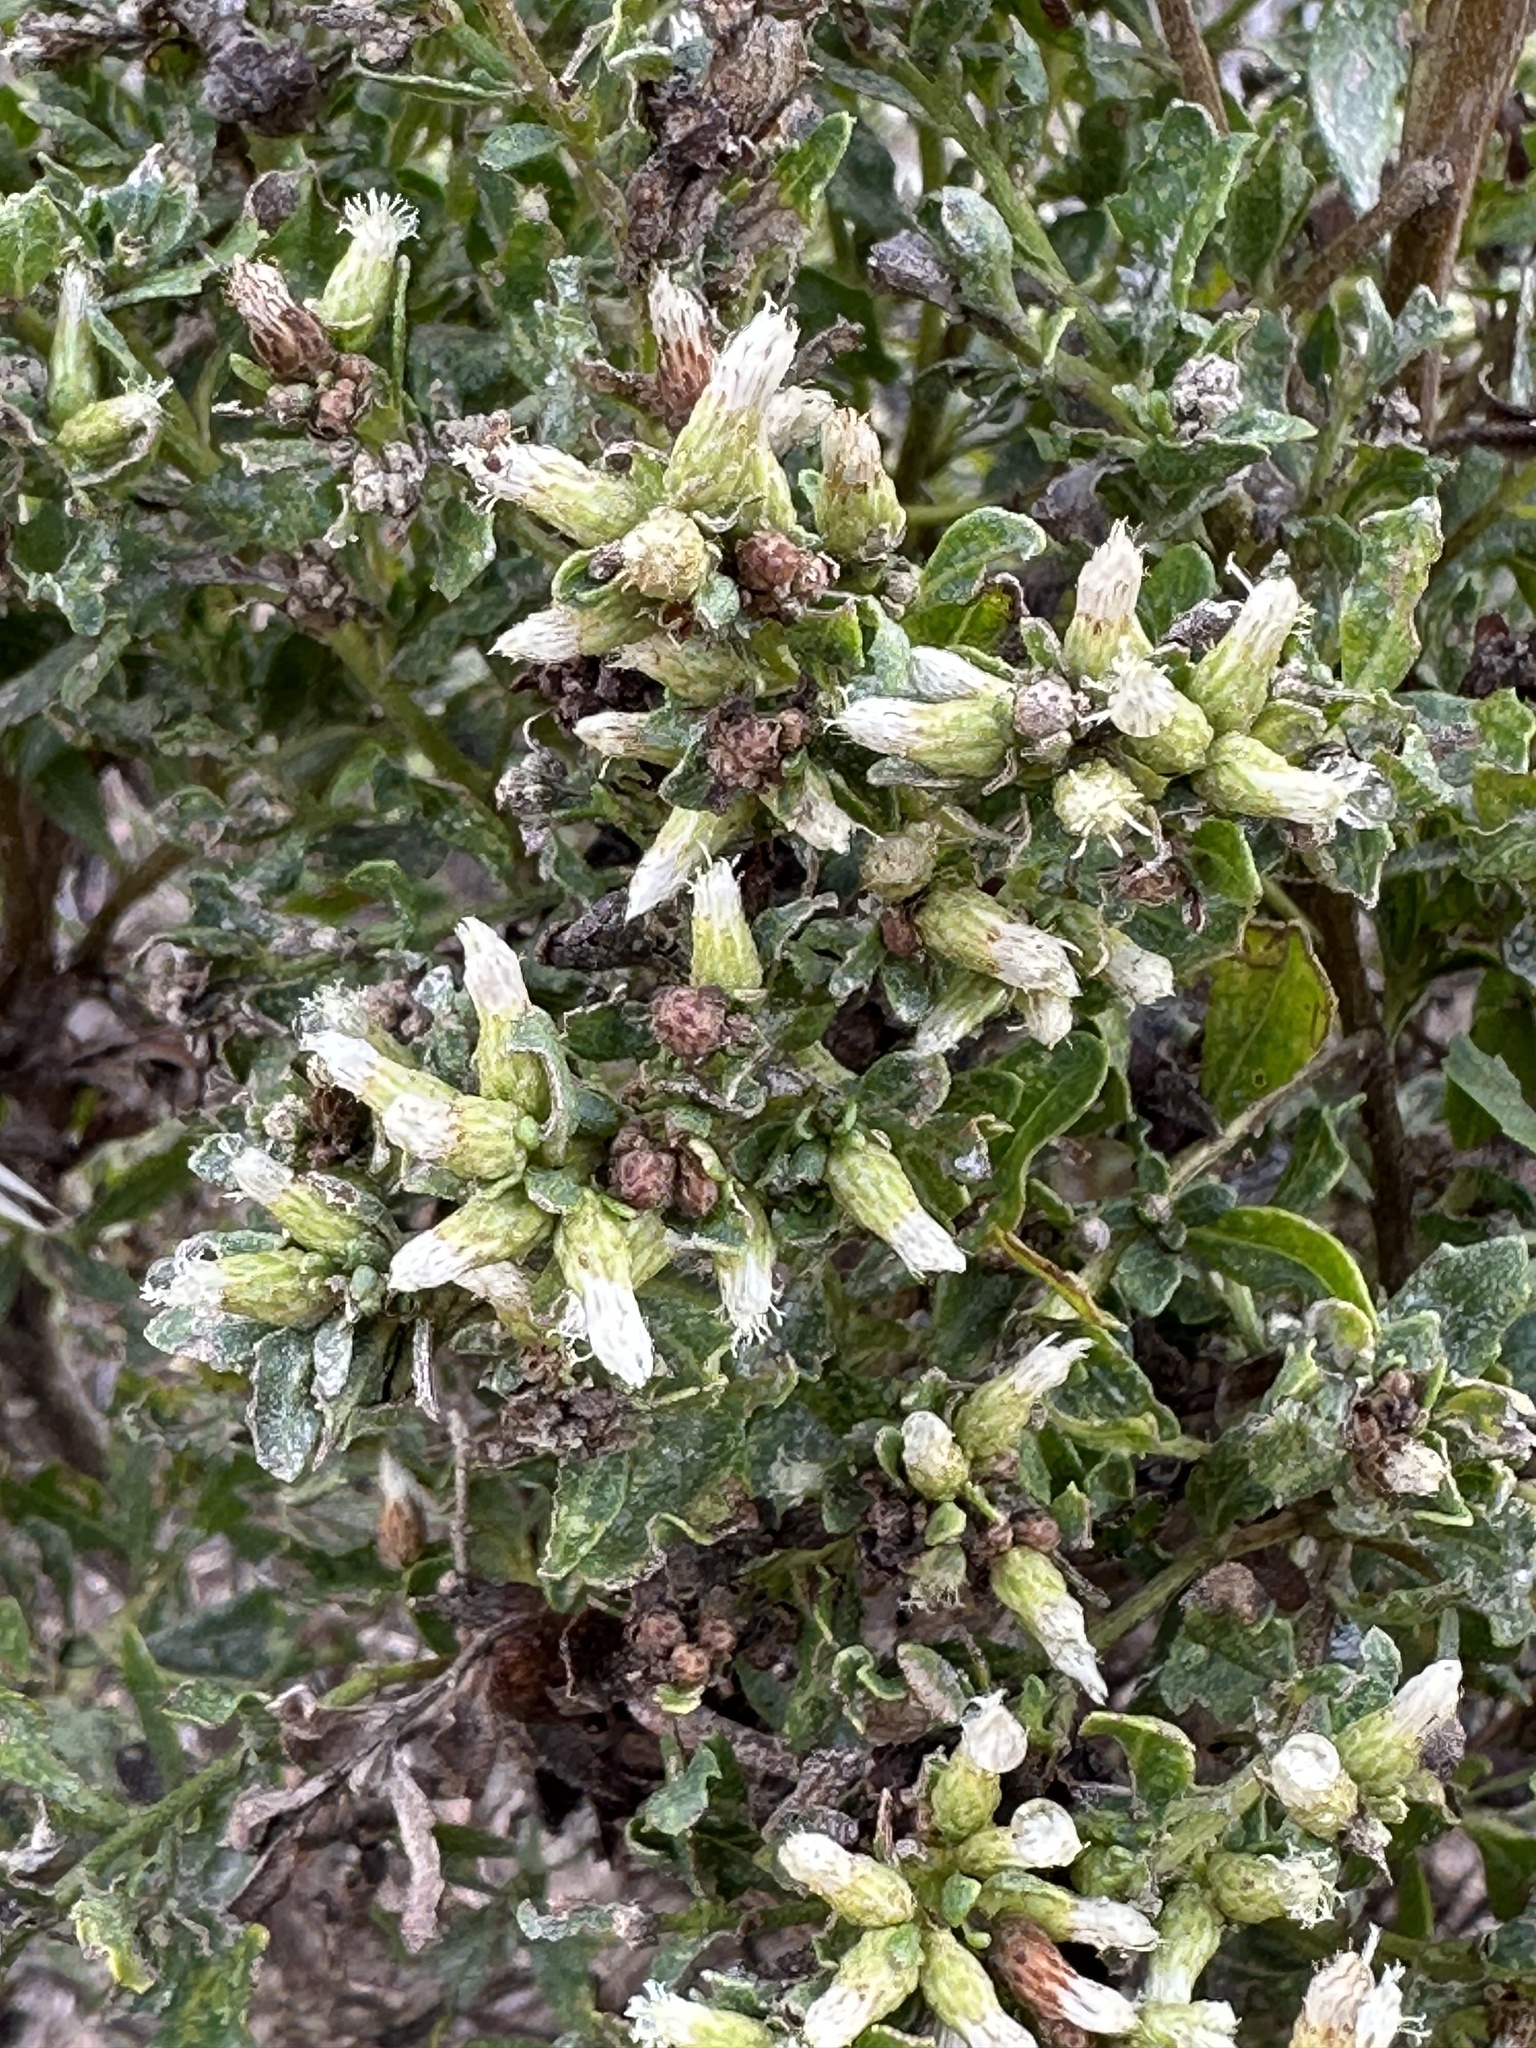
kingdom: Plantae
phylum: Tracheophyta
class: Magnoliopsida
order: Asterales
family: Asteraceae
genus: Baccharis
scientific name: Baccharis pilularis
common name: Coyotebrush
